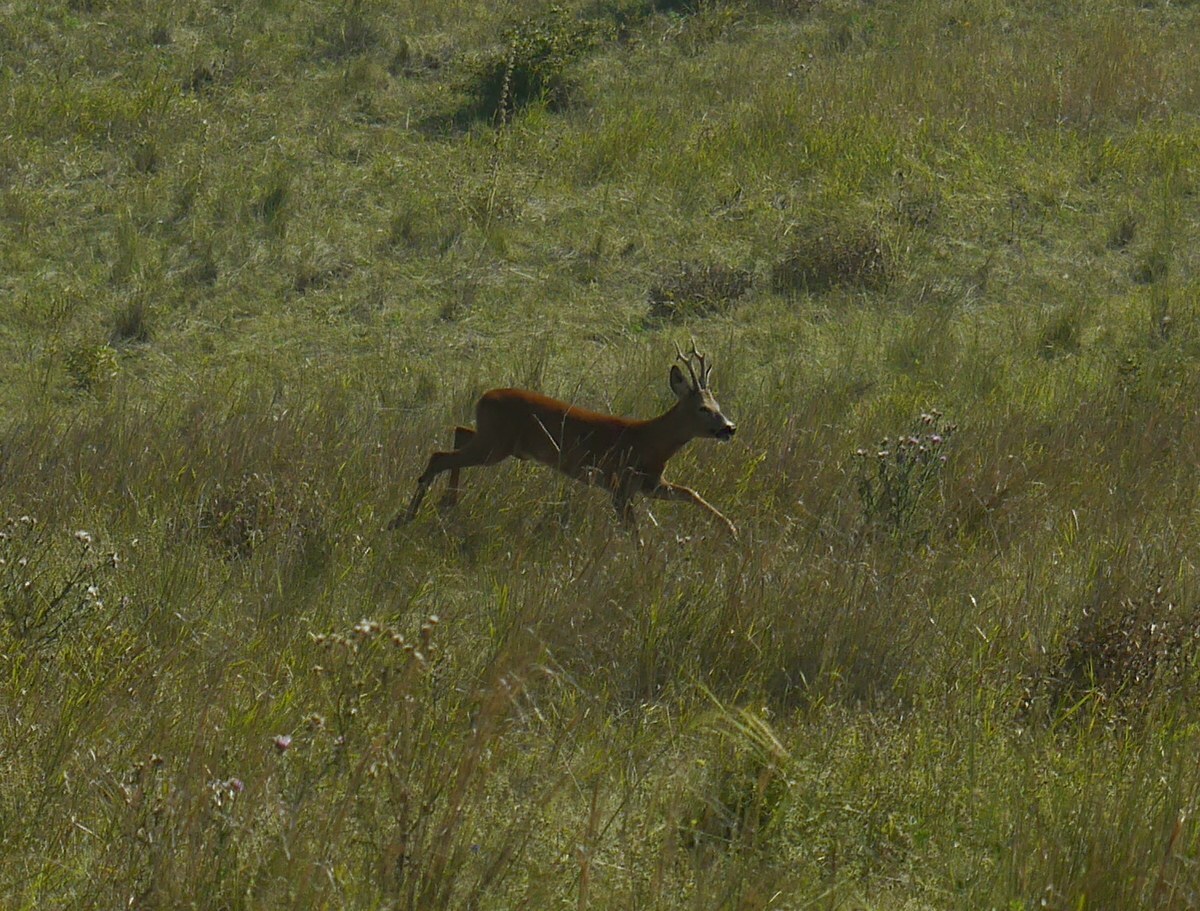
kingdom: Animalia
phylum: Chordata
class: Mammalia
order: Artiodactyla
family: Cervidae
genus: Capreolus
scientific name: Capreolus capreolus
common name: Western roe deer
